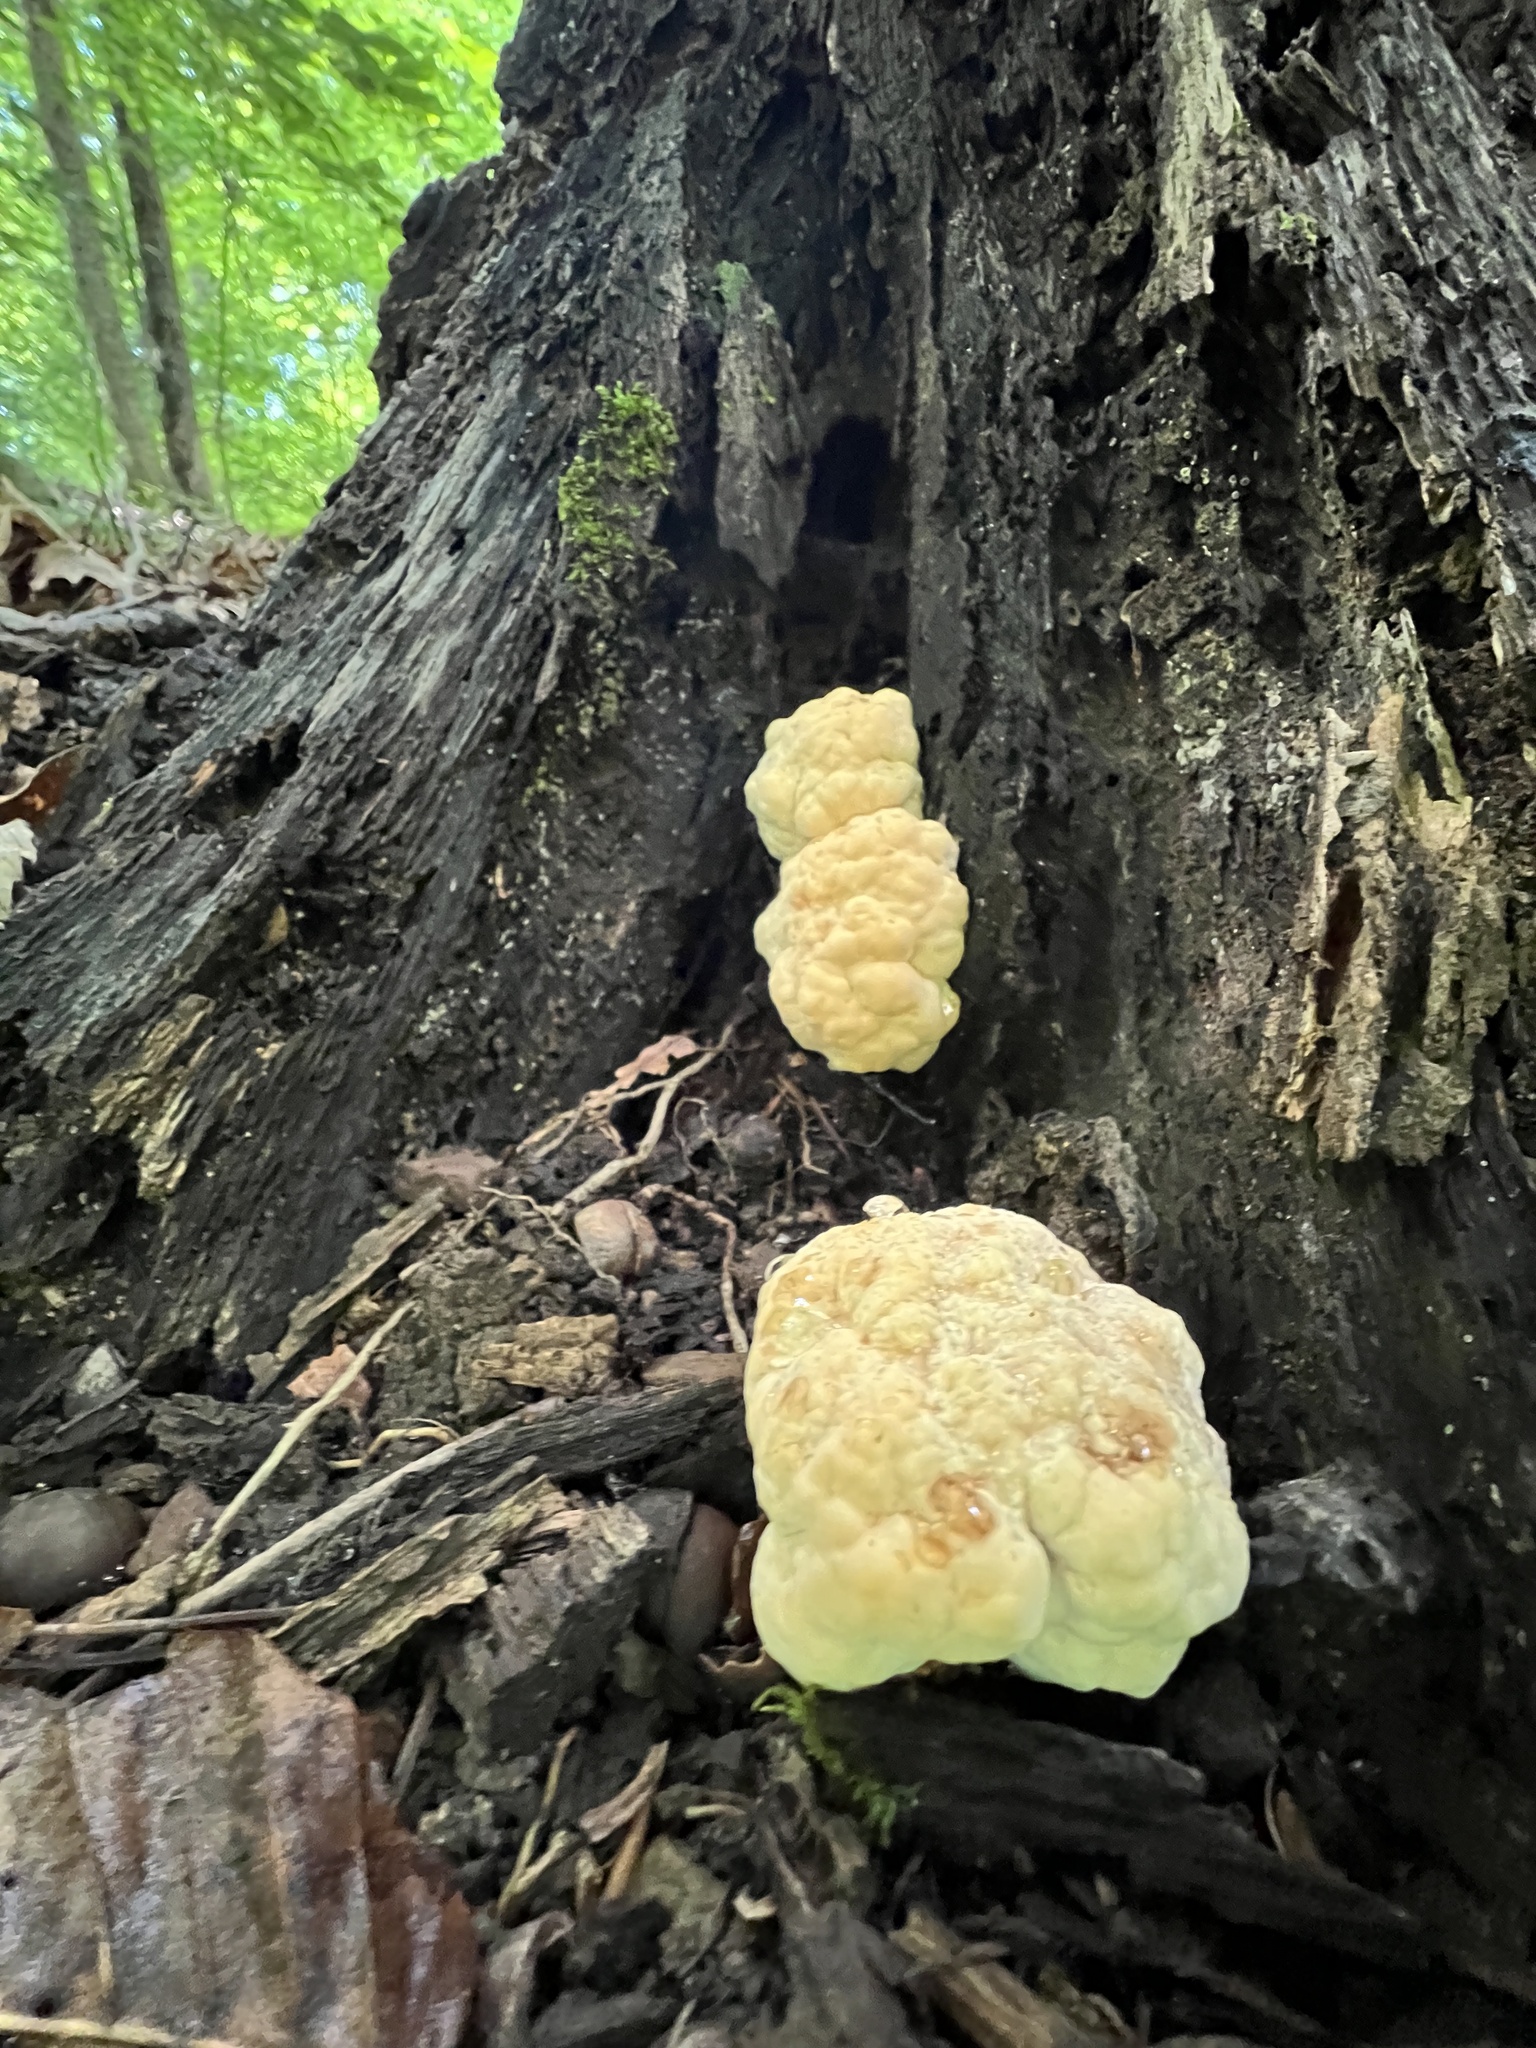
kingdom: Fungi
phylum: Basidiomycota
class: Agaricomycetes
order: Polyporales
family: Meripilaceae
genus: Meripilus
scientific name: Meripilus sumstinei
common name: Black-staining polypore
